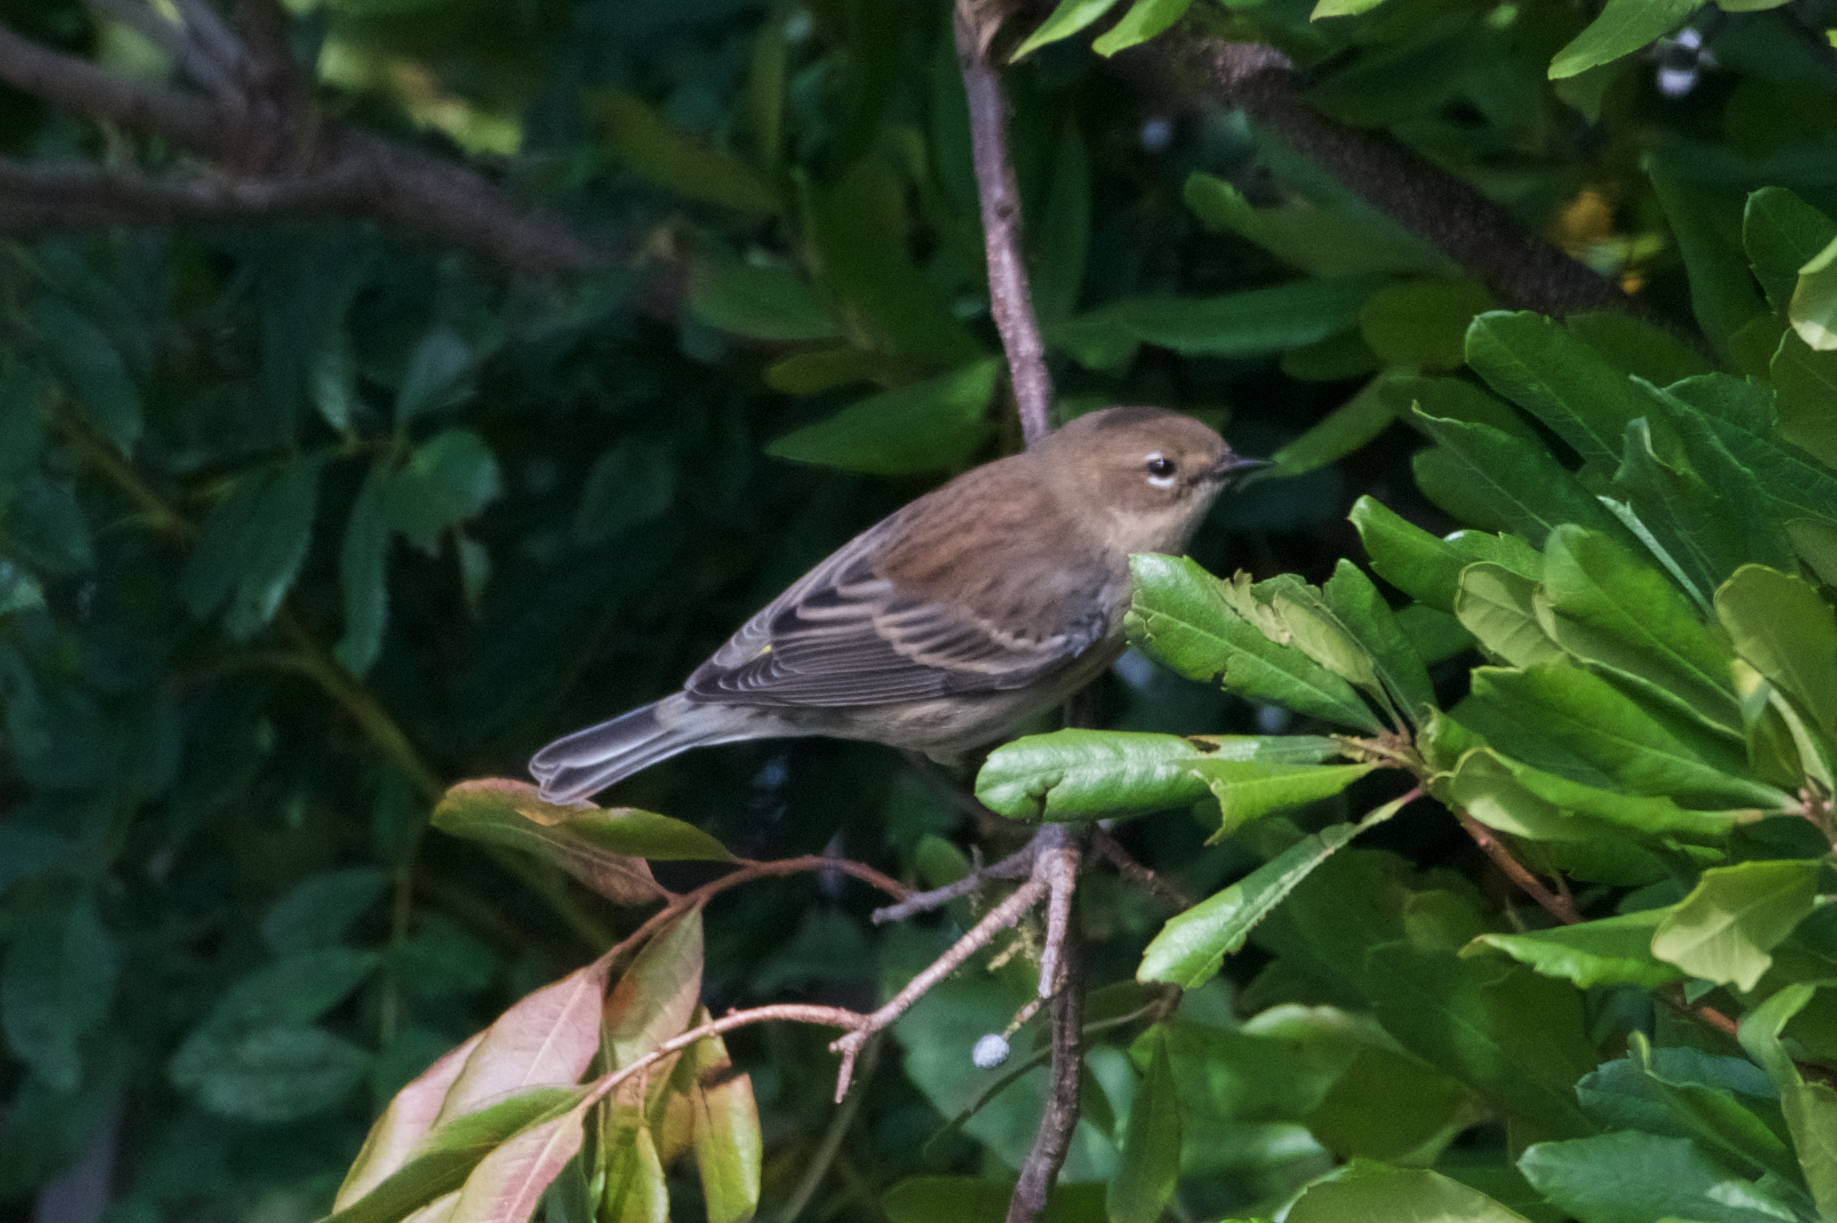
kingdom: Animalia
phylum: Chordata
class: Aves
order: Passeriformes
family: Parulidae
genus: Setophaga
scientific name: Setophaga coronata
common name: Myrtle warbler
